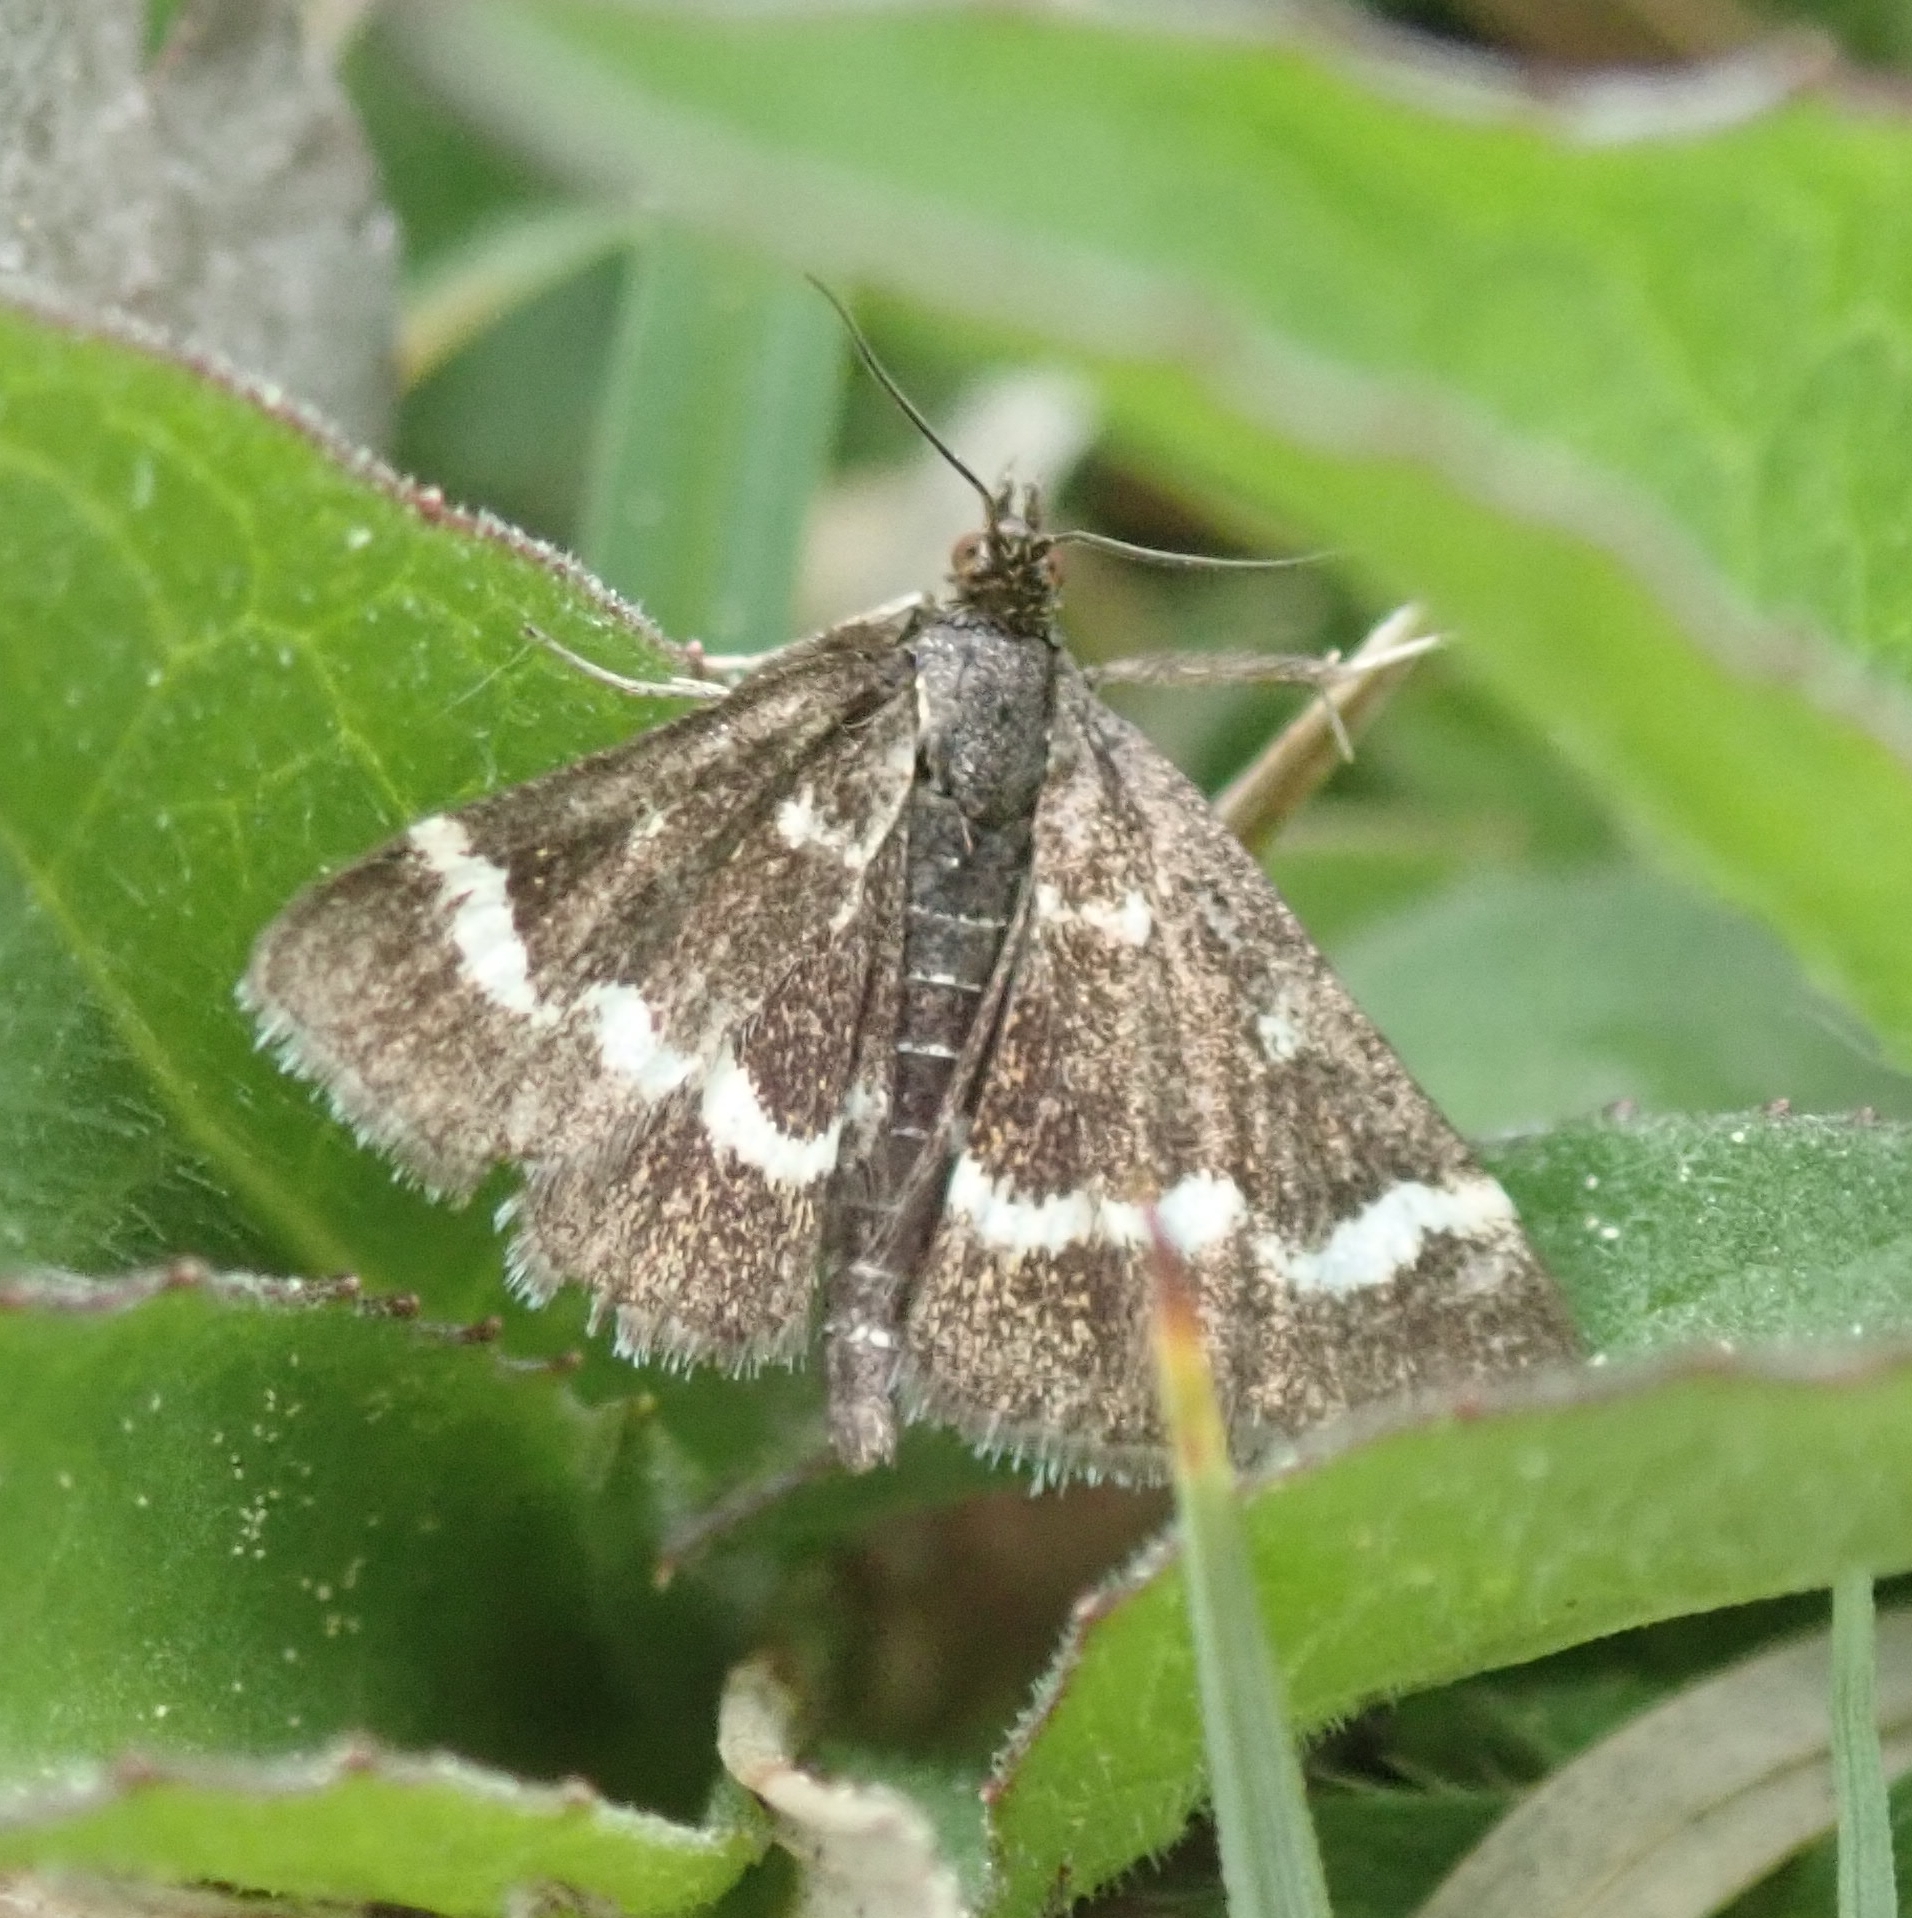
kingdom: Animalia
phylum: Arthropoda
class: Insecta
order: Lepidoptera
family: Crambidae
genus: Pyrausta
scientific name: Pyrausta nigrata
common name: Wavy-barred sable
